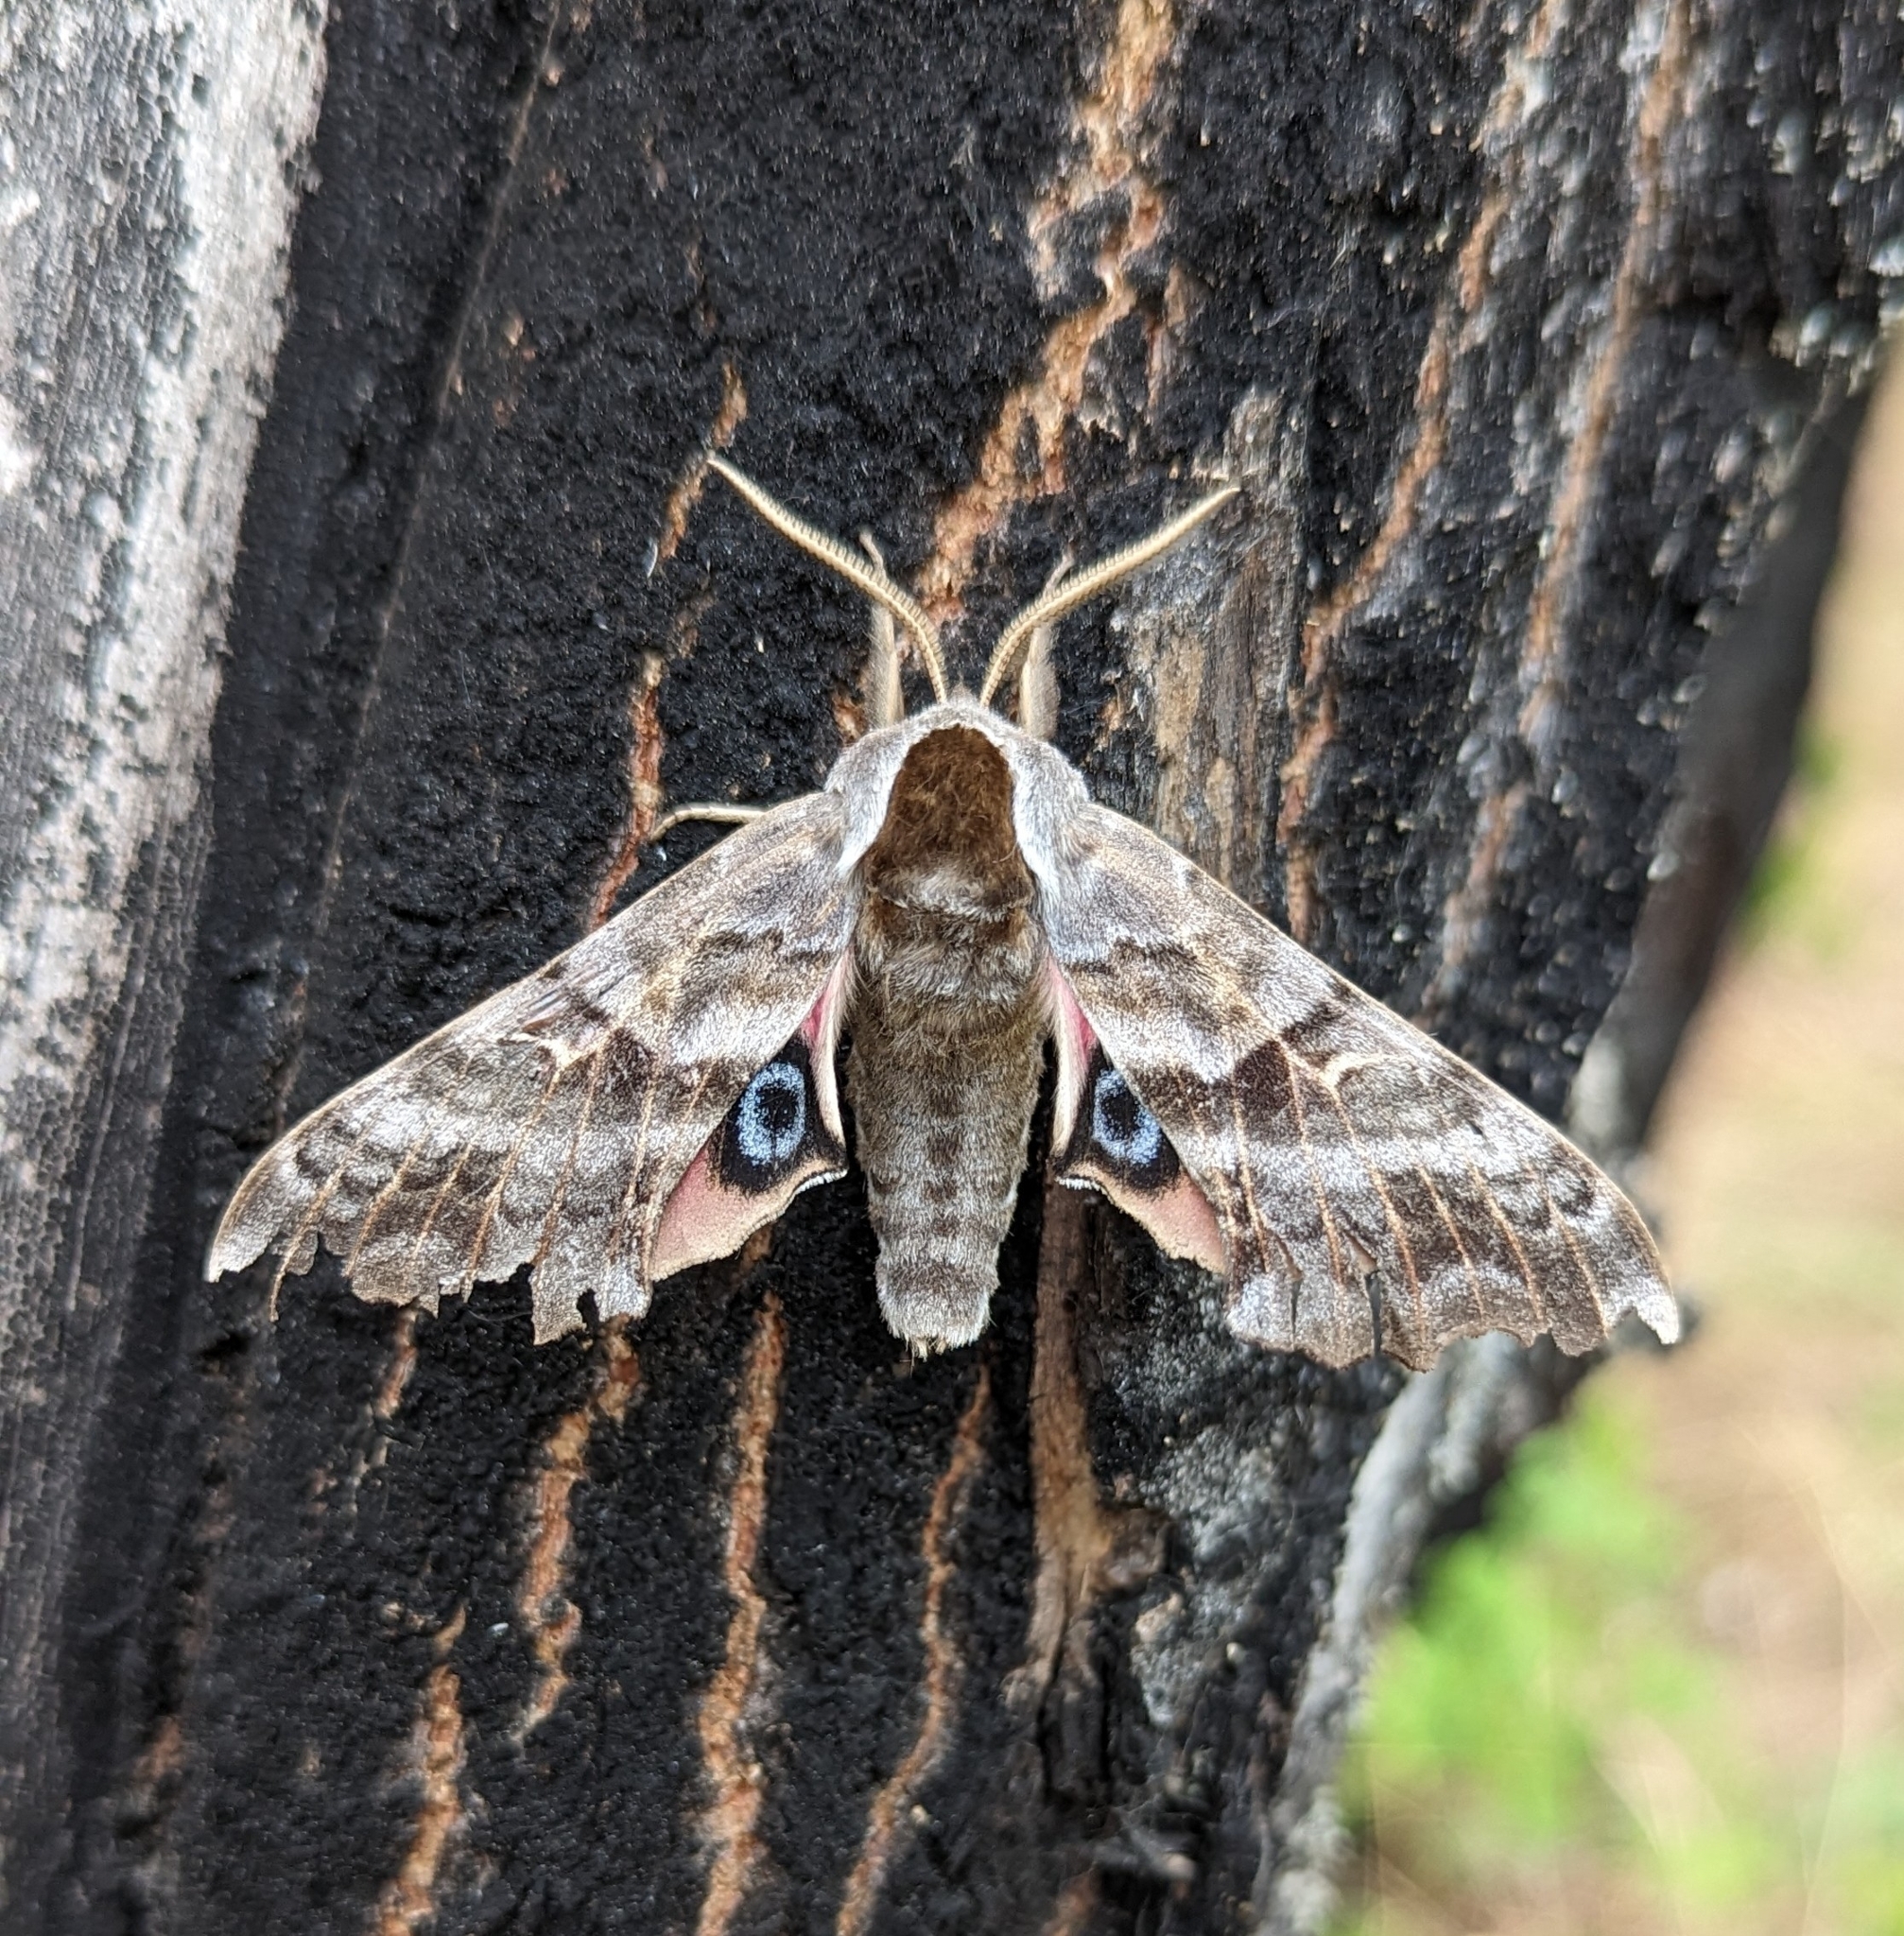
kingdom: Animalia
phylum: Arthropoda
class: Insecta
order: Lepidoptera
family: Sphingidae
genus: Smerinthus
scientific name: Smerinthus cerisyi
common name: Cerisy's sphinx moth
